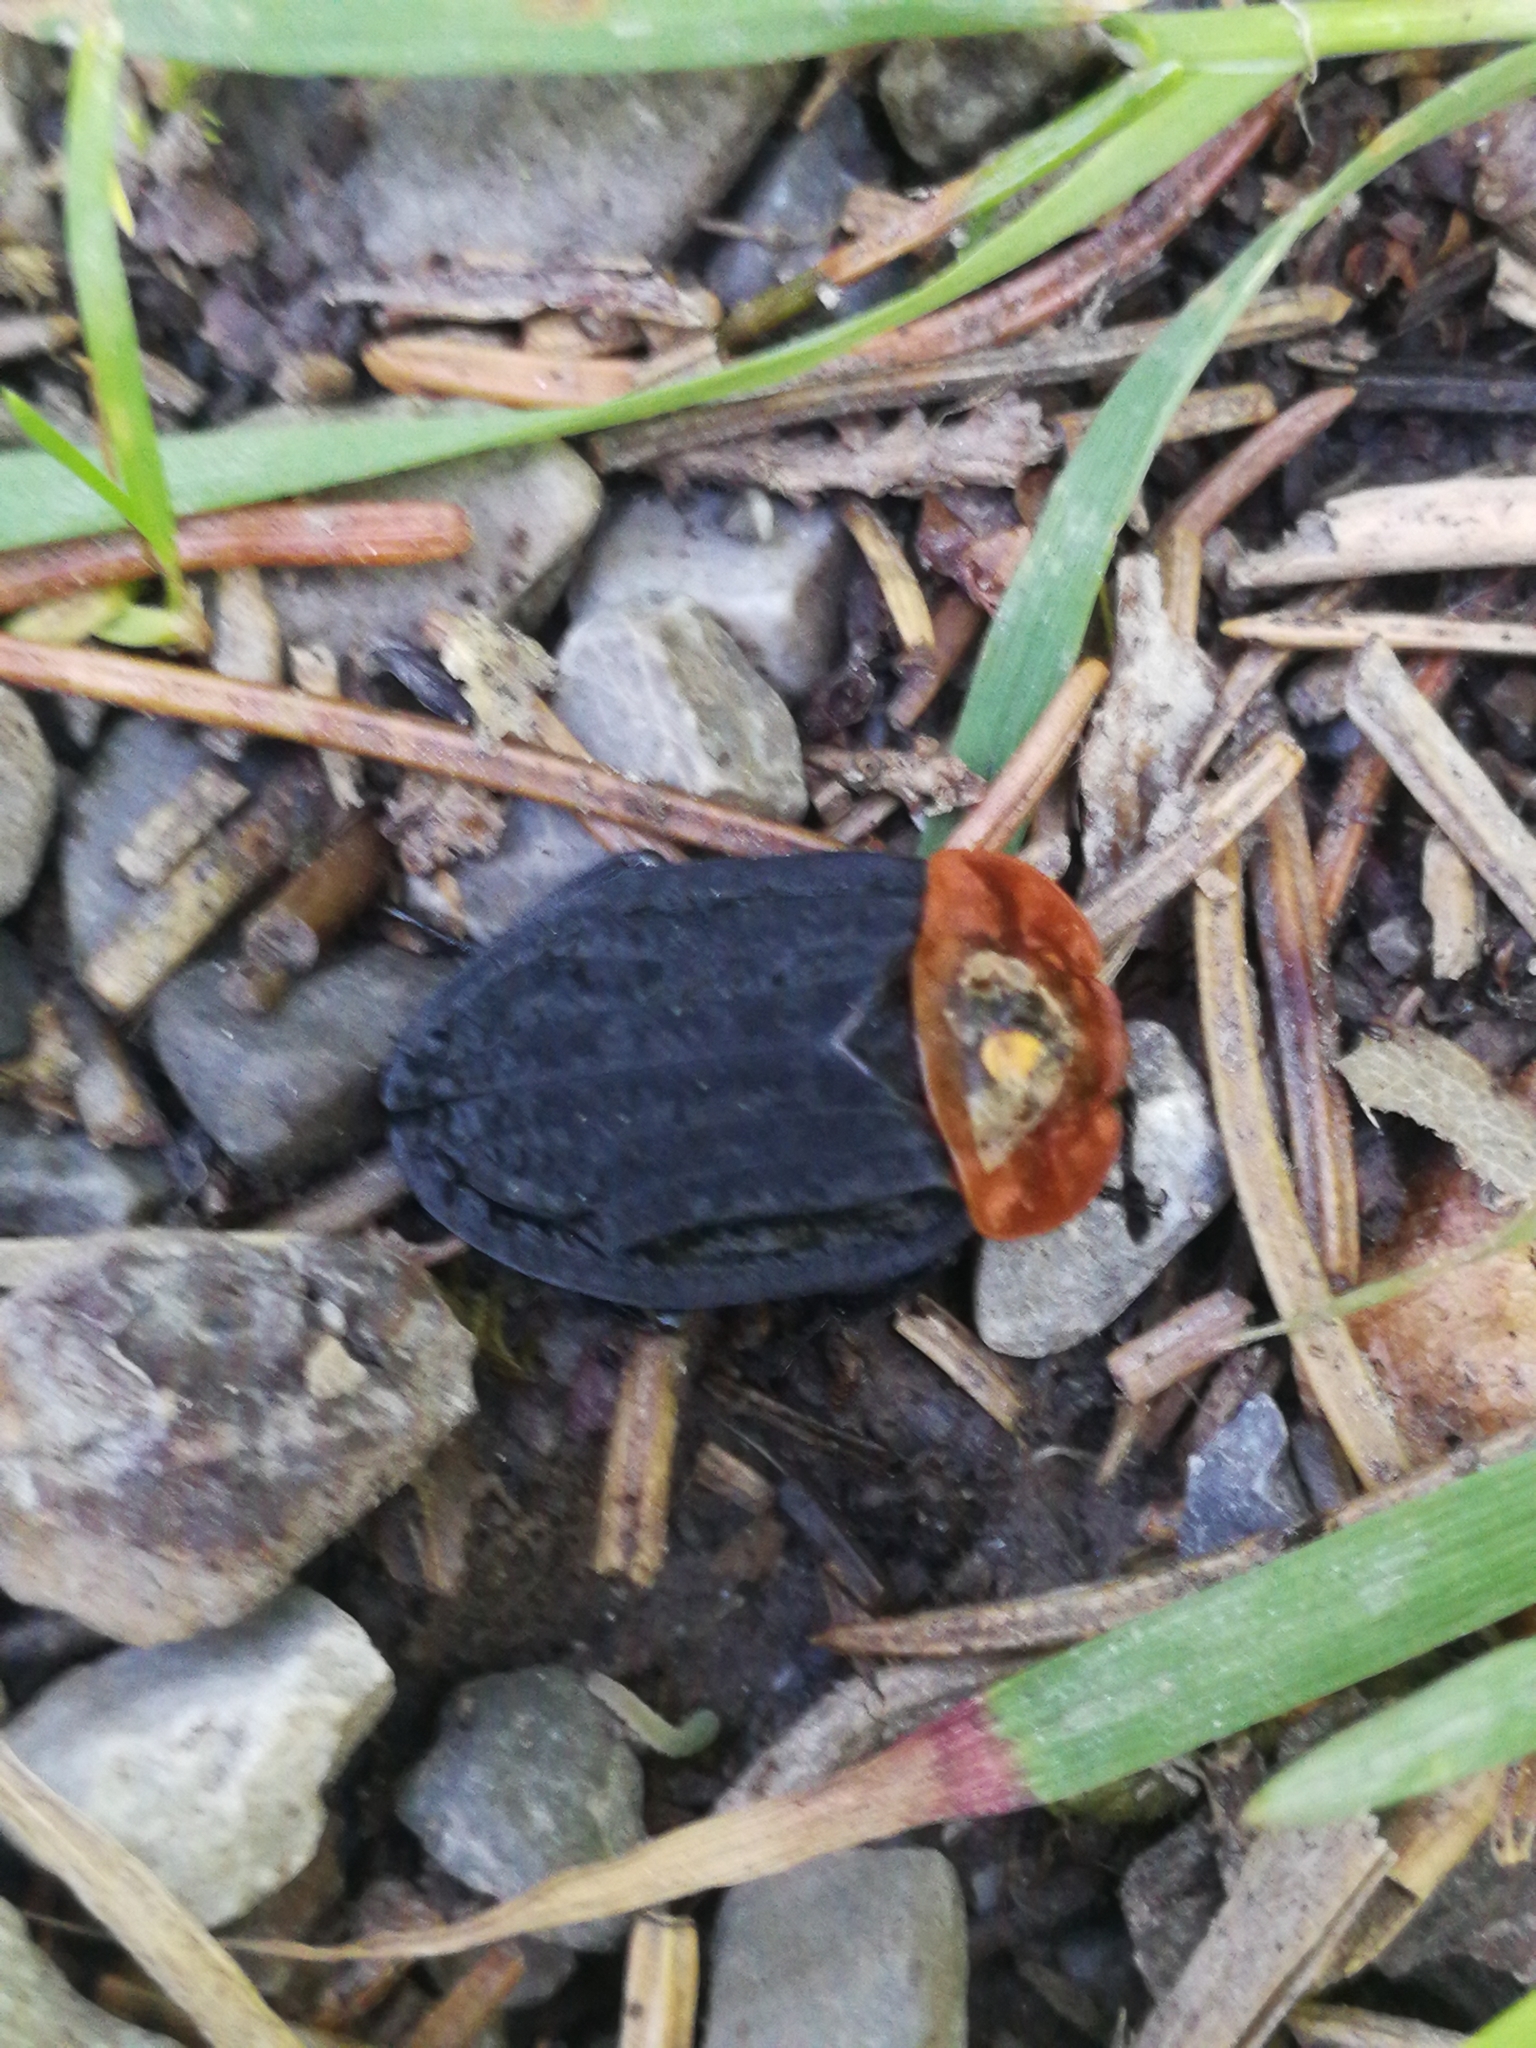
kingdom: Animalia
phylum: Arthropoda
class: Insecta
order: Coleoptera
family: Staphylinidae
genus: Oiceoptoma
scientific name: Oiceoptoma thoracicum
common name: Red-breasted carrion beetle
